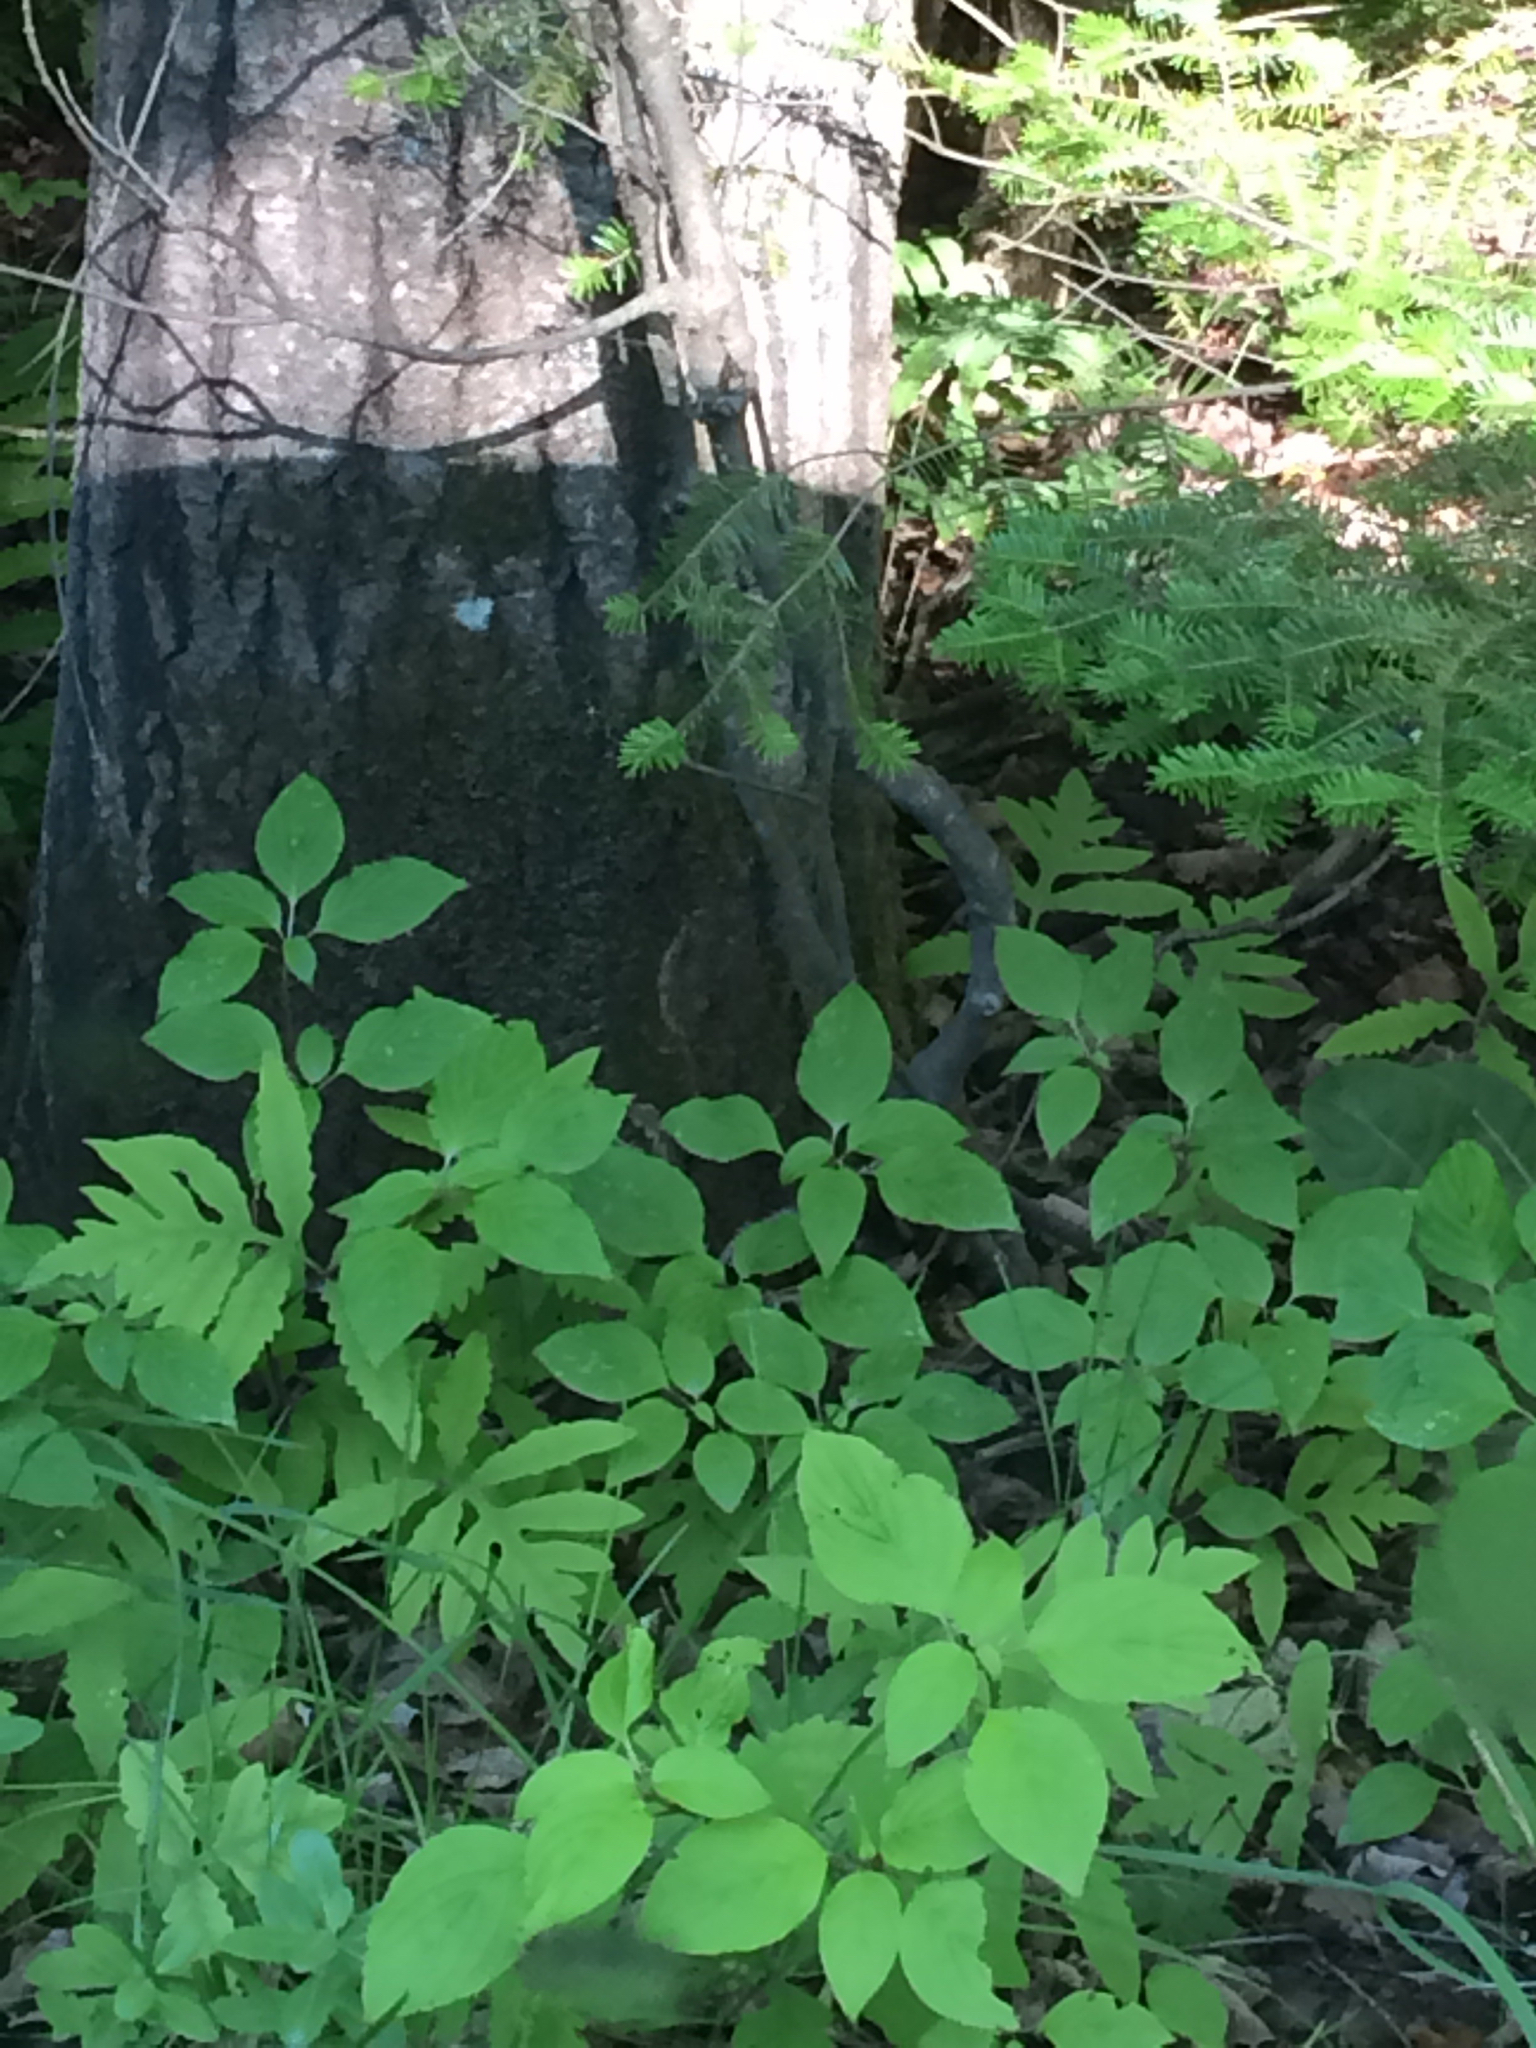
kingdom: Plantae
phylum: Tracheophyta
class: Polypodiopsida
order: Polypodiales
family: Onocleaceae
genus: Onoclea
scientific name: Onoclea sensibilis
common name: Sensitive fern
